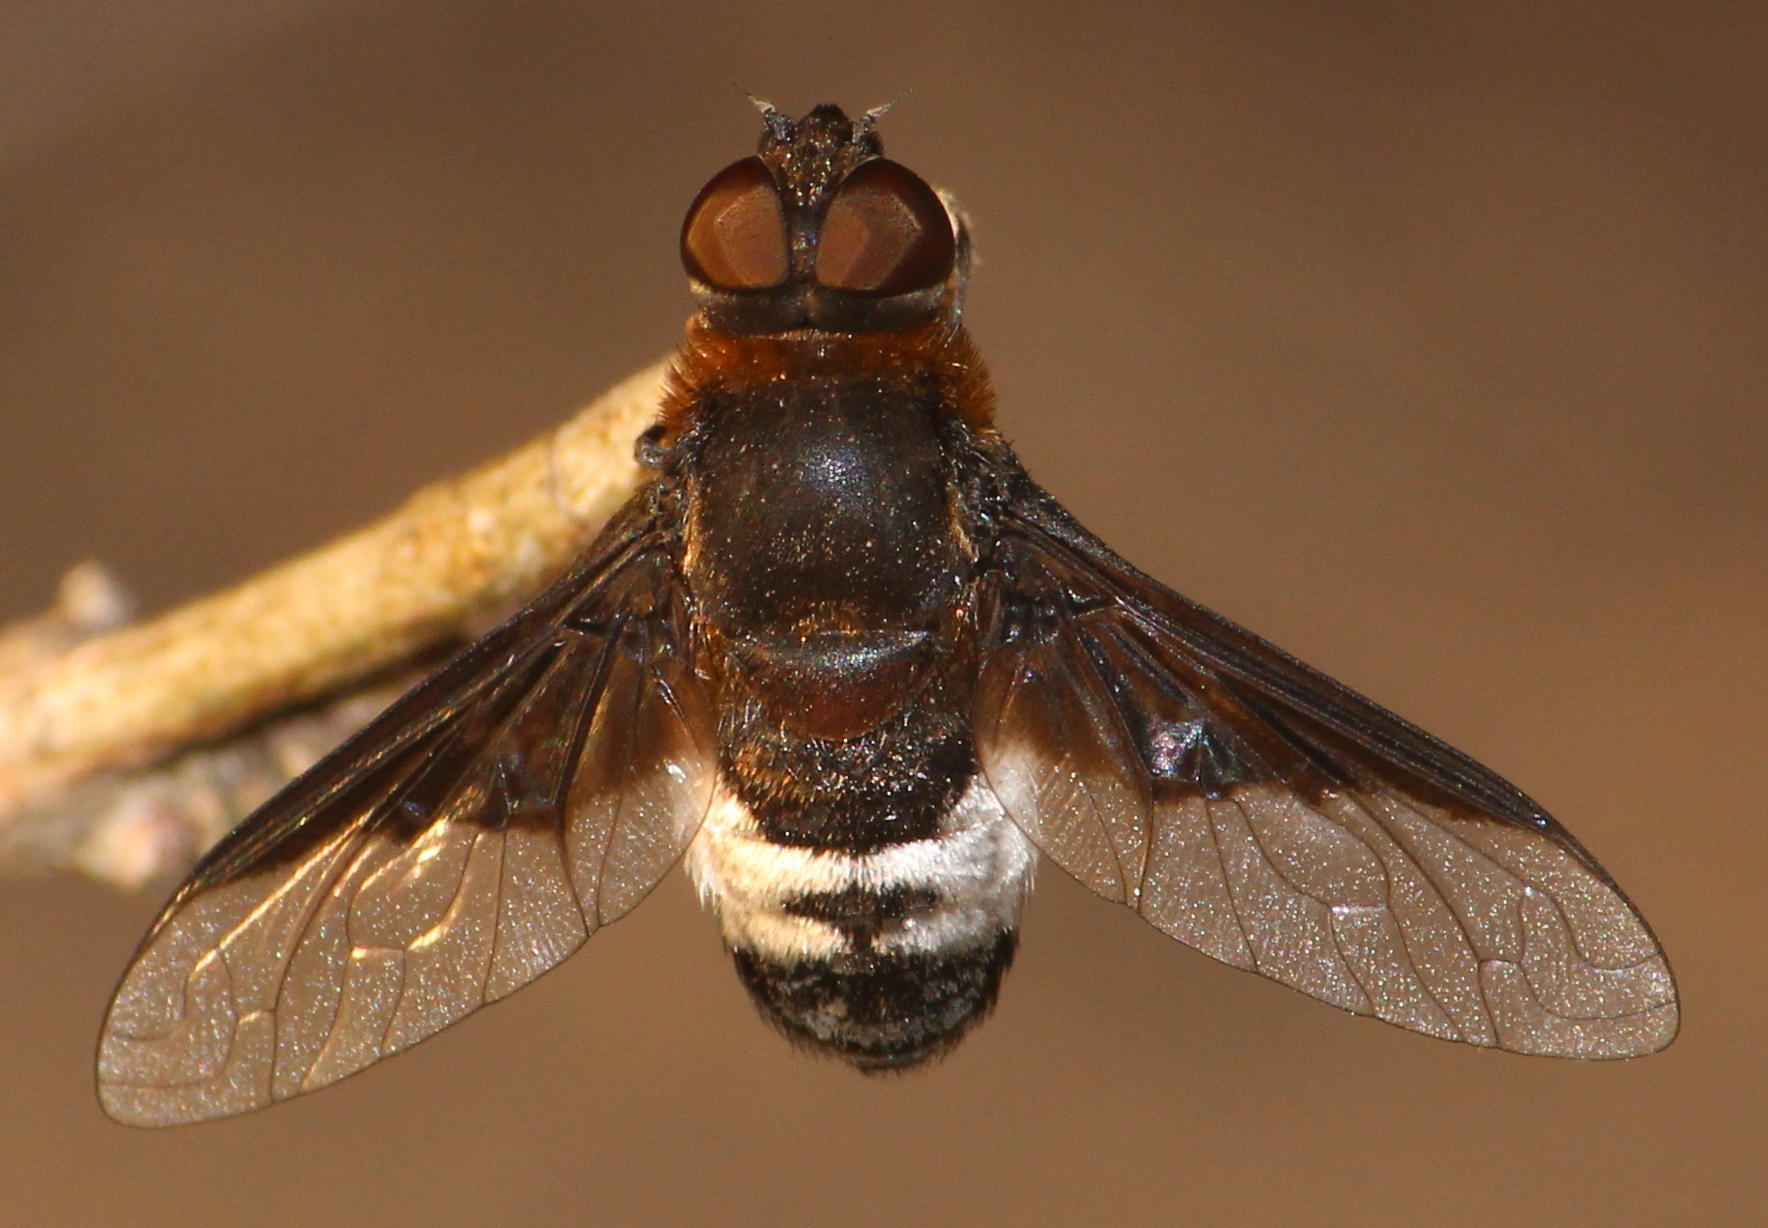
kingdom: Animalia
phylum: Arthropoda
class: Insecta
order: Diptera
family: Bombyliidae
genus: Exoprosopa
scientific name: Exoprosopa dimidiata
